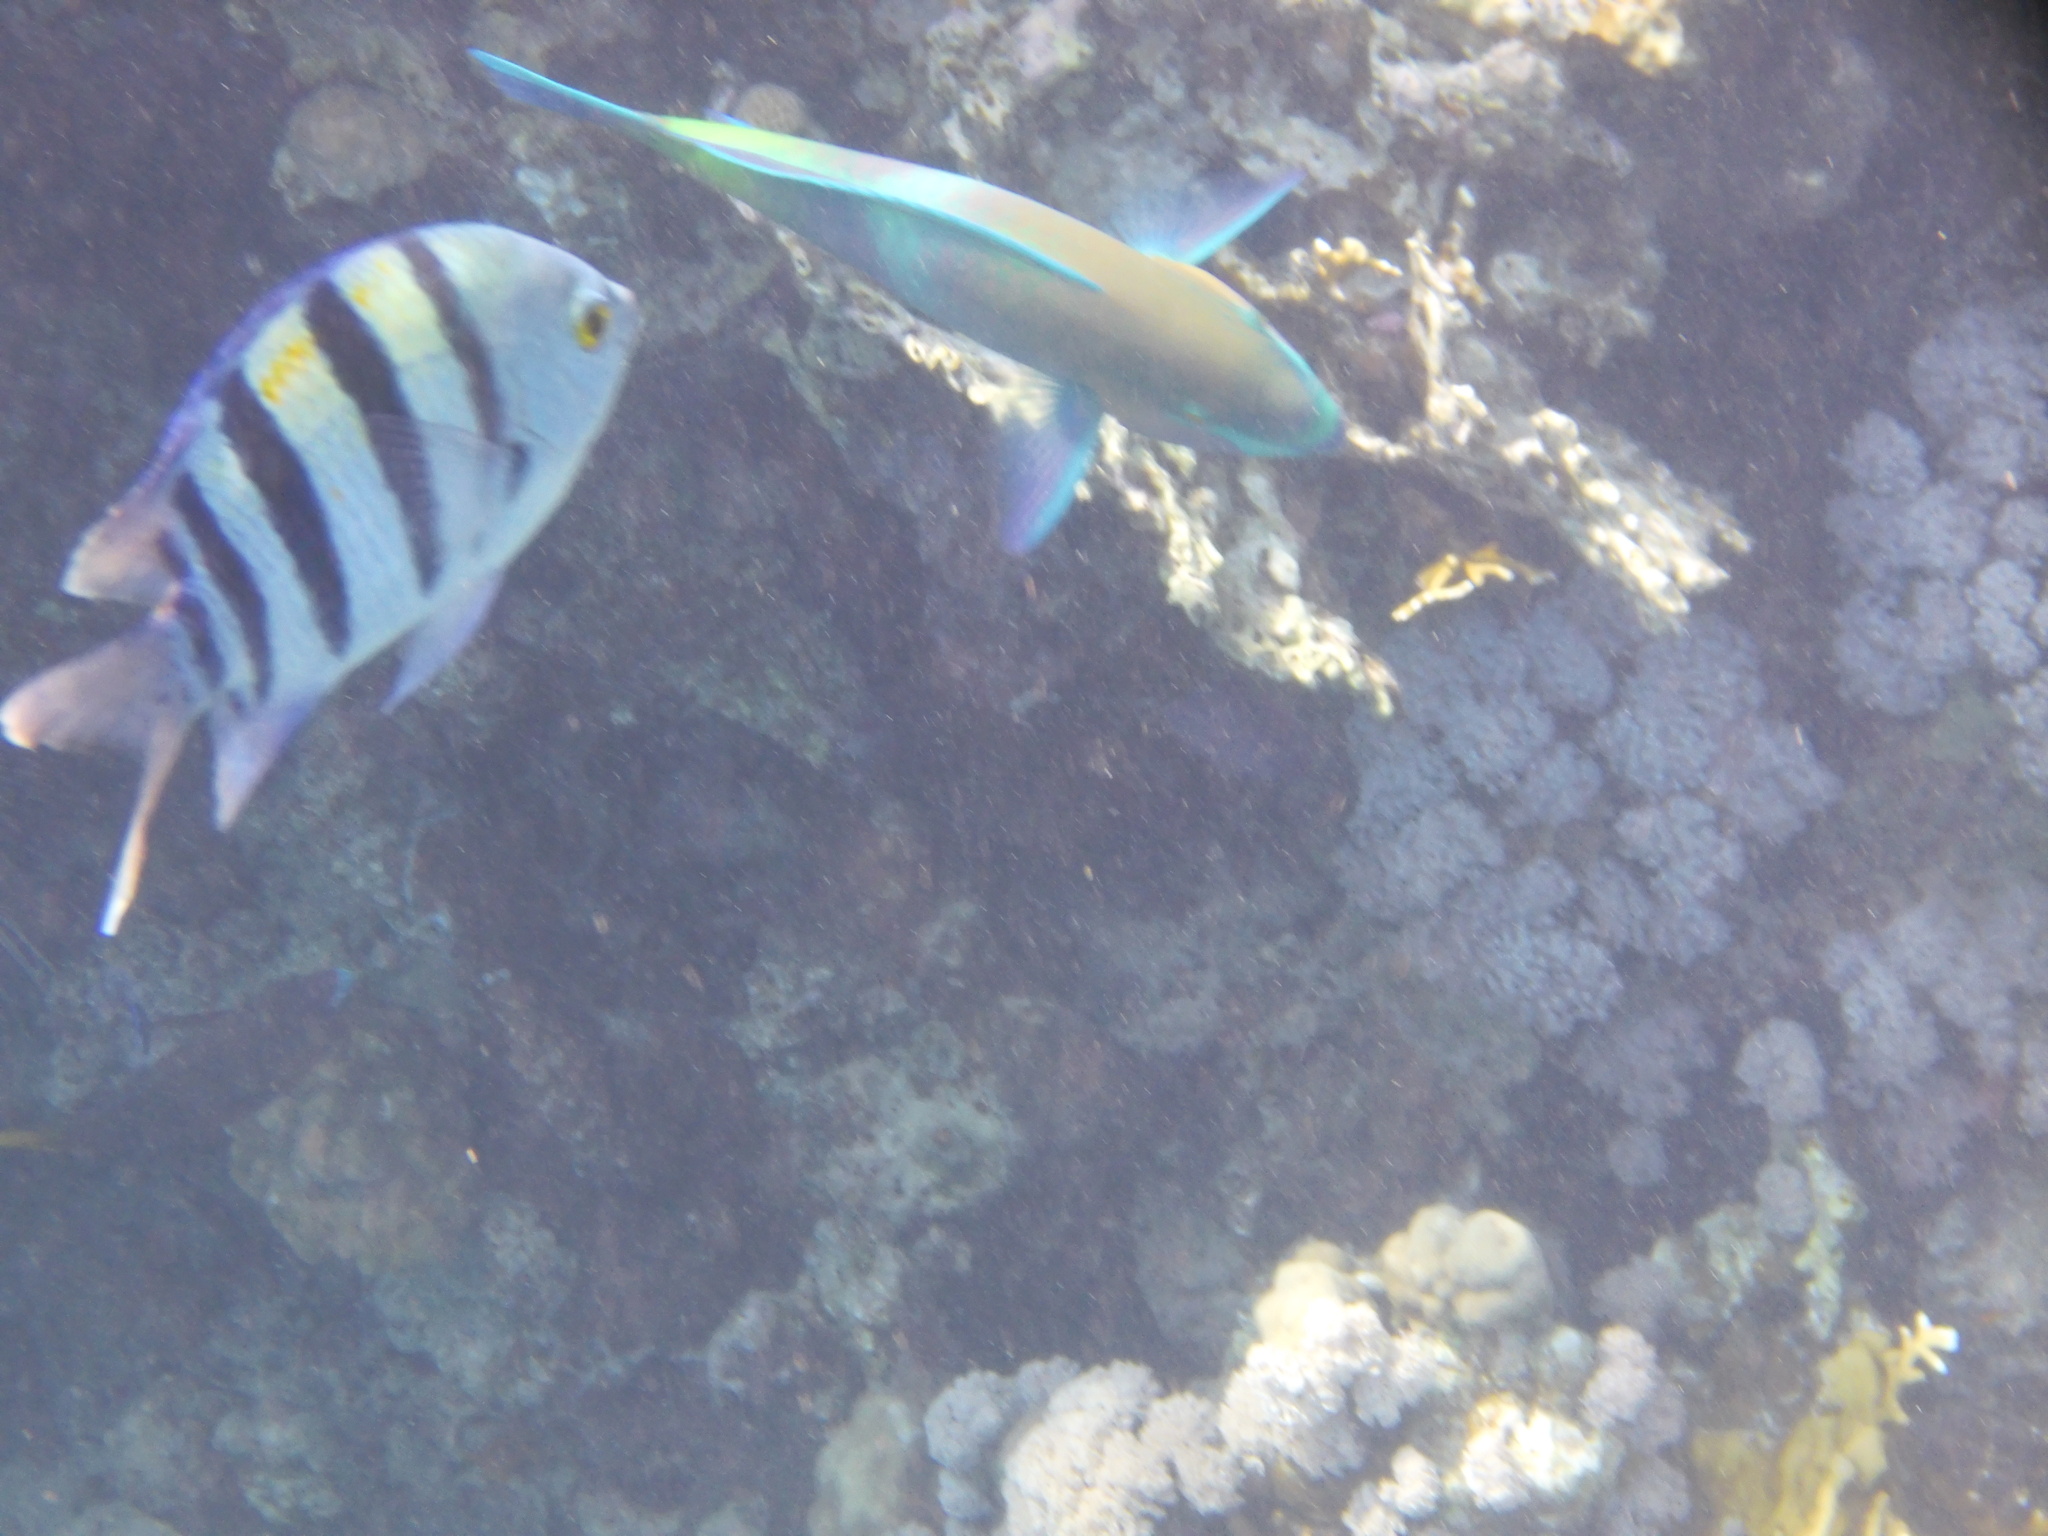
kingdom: Animalia
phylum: Chordata
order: Perciformes
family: Scaridae
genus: Scarus
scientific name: Scarus ferrugineus
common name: Rusty parrotfish
